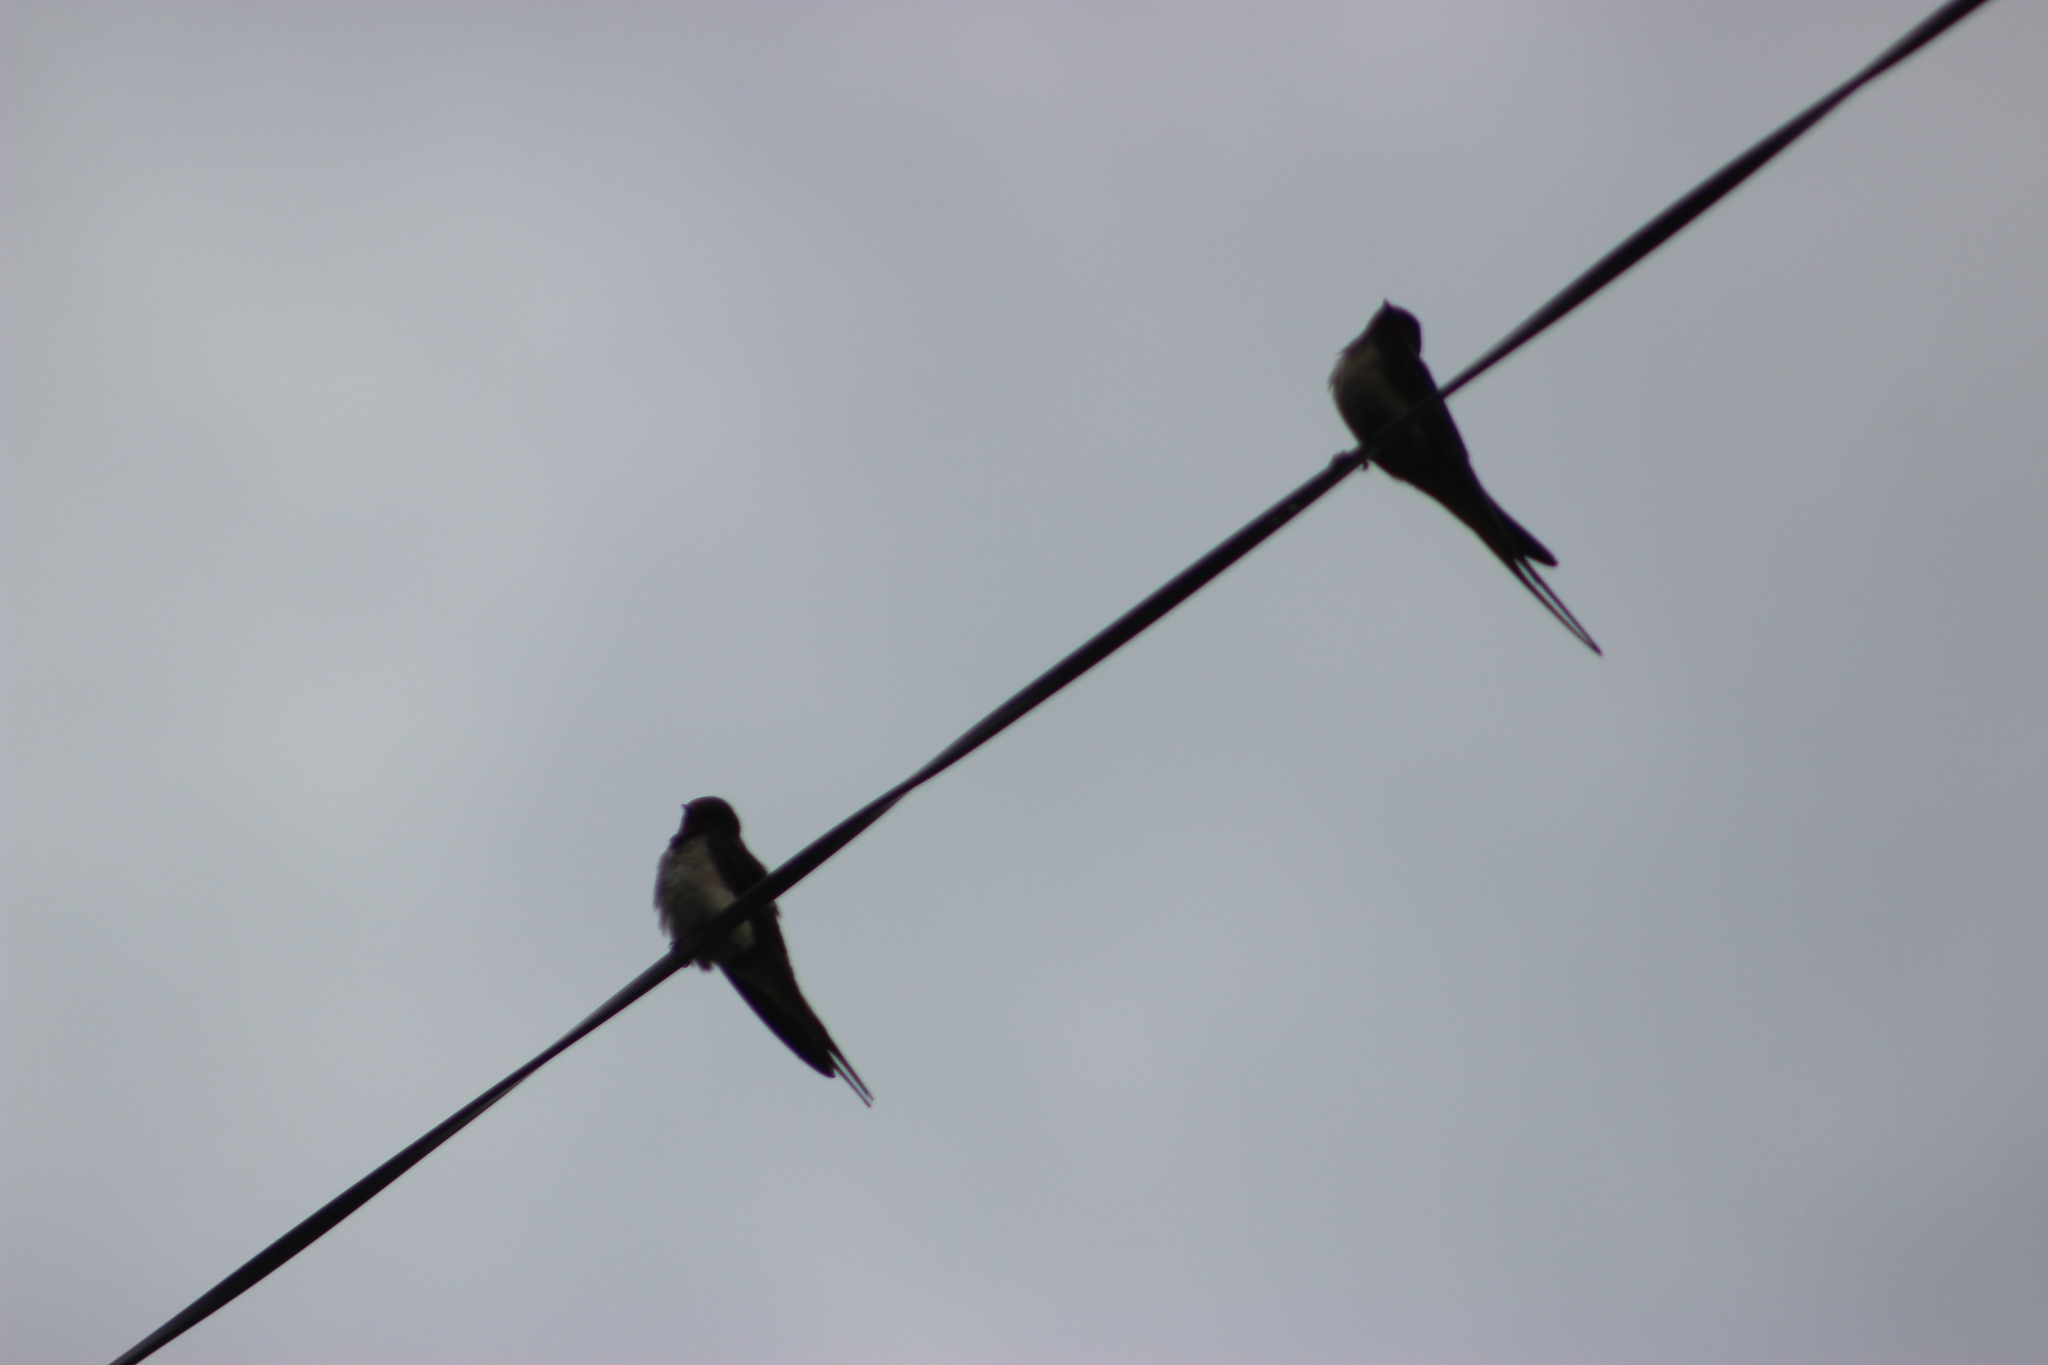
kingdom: Animalia
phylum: Chordata
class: Aves
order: Passeriformes
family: Hirundinidae
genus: Hirundo
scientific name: Hirundo rustica
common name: Barn swallow
